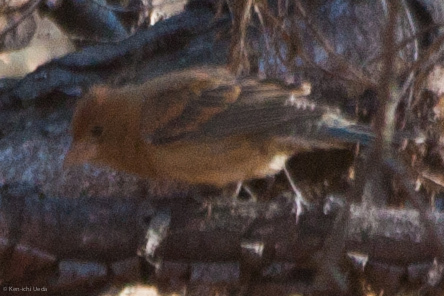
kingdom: Animalia
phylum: Chordata
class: Aves
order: Passeriformes
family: Cardinalidae
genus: Passerina
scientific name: Passerina caerulea
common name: Blue grosbeak
